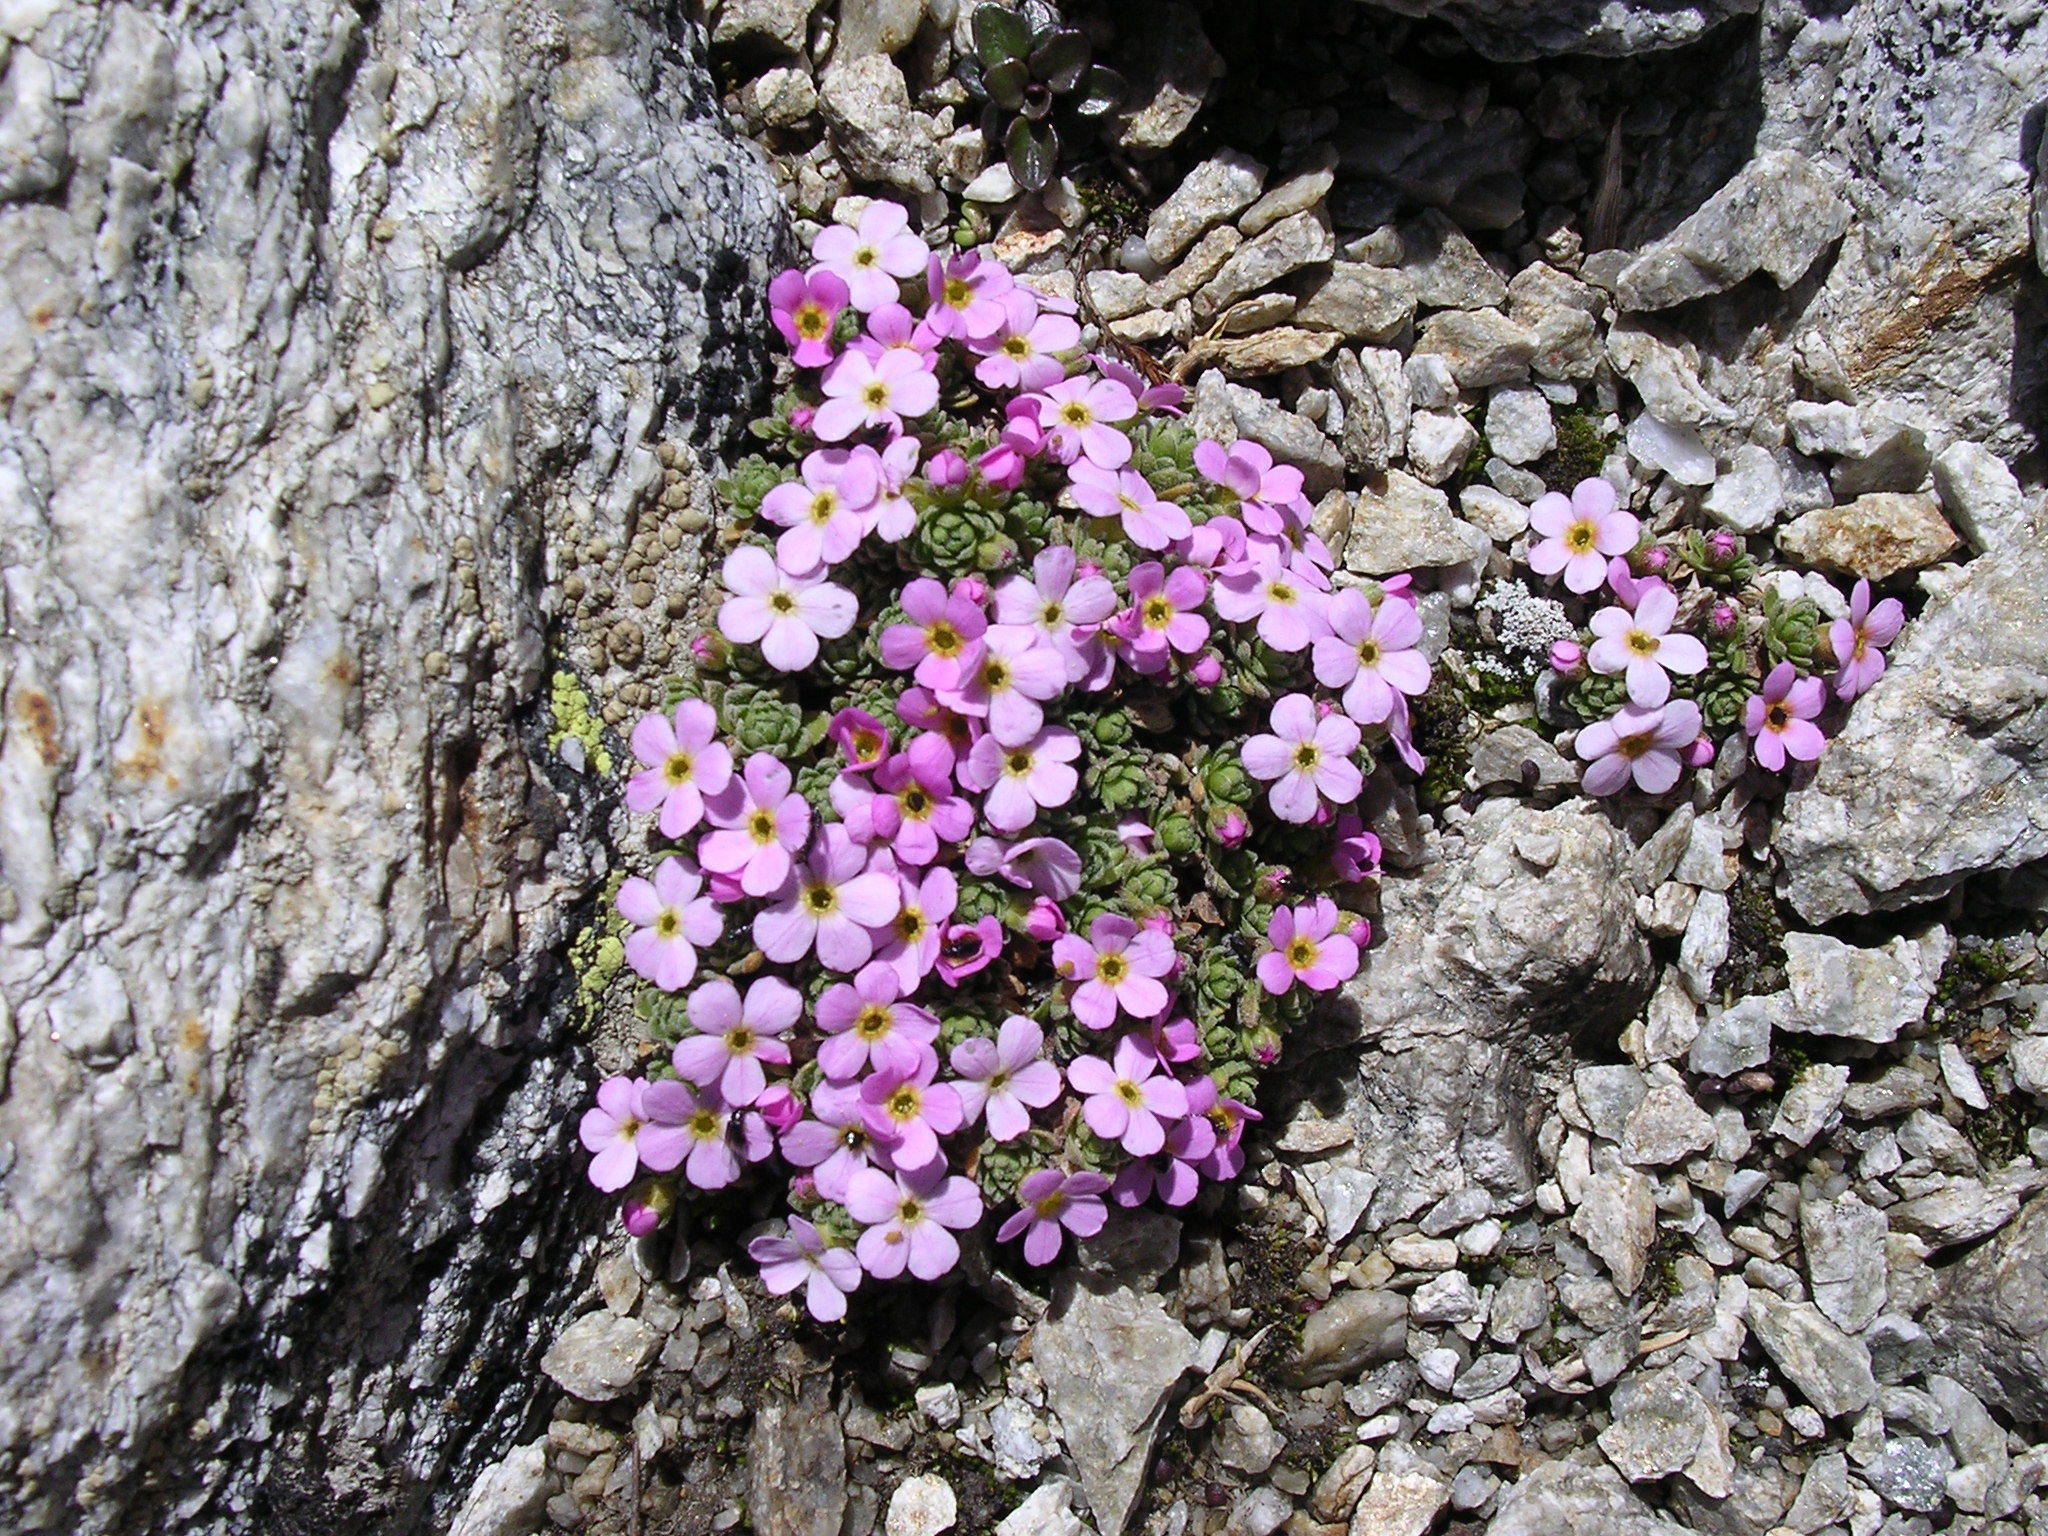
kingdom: Plantae
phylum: Tracheophyta
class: Magnoliopsida
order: Ericales
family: Primulaceae
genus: Androsace
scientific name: Androsace alpina
